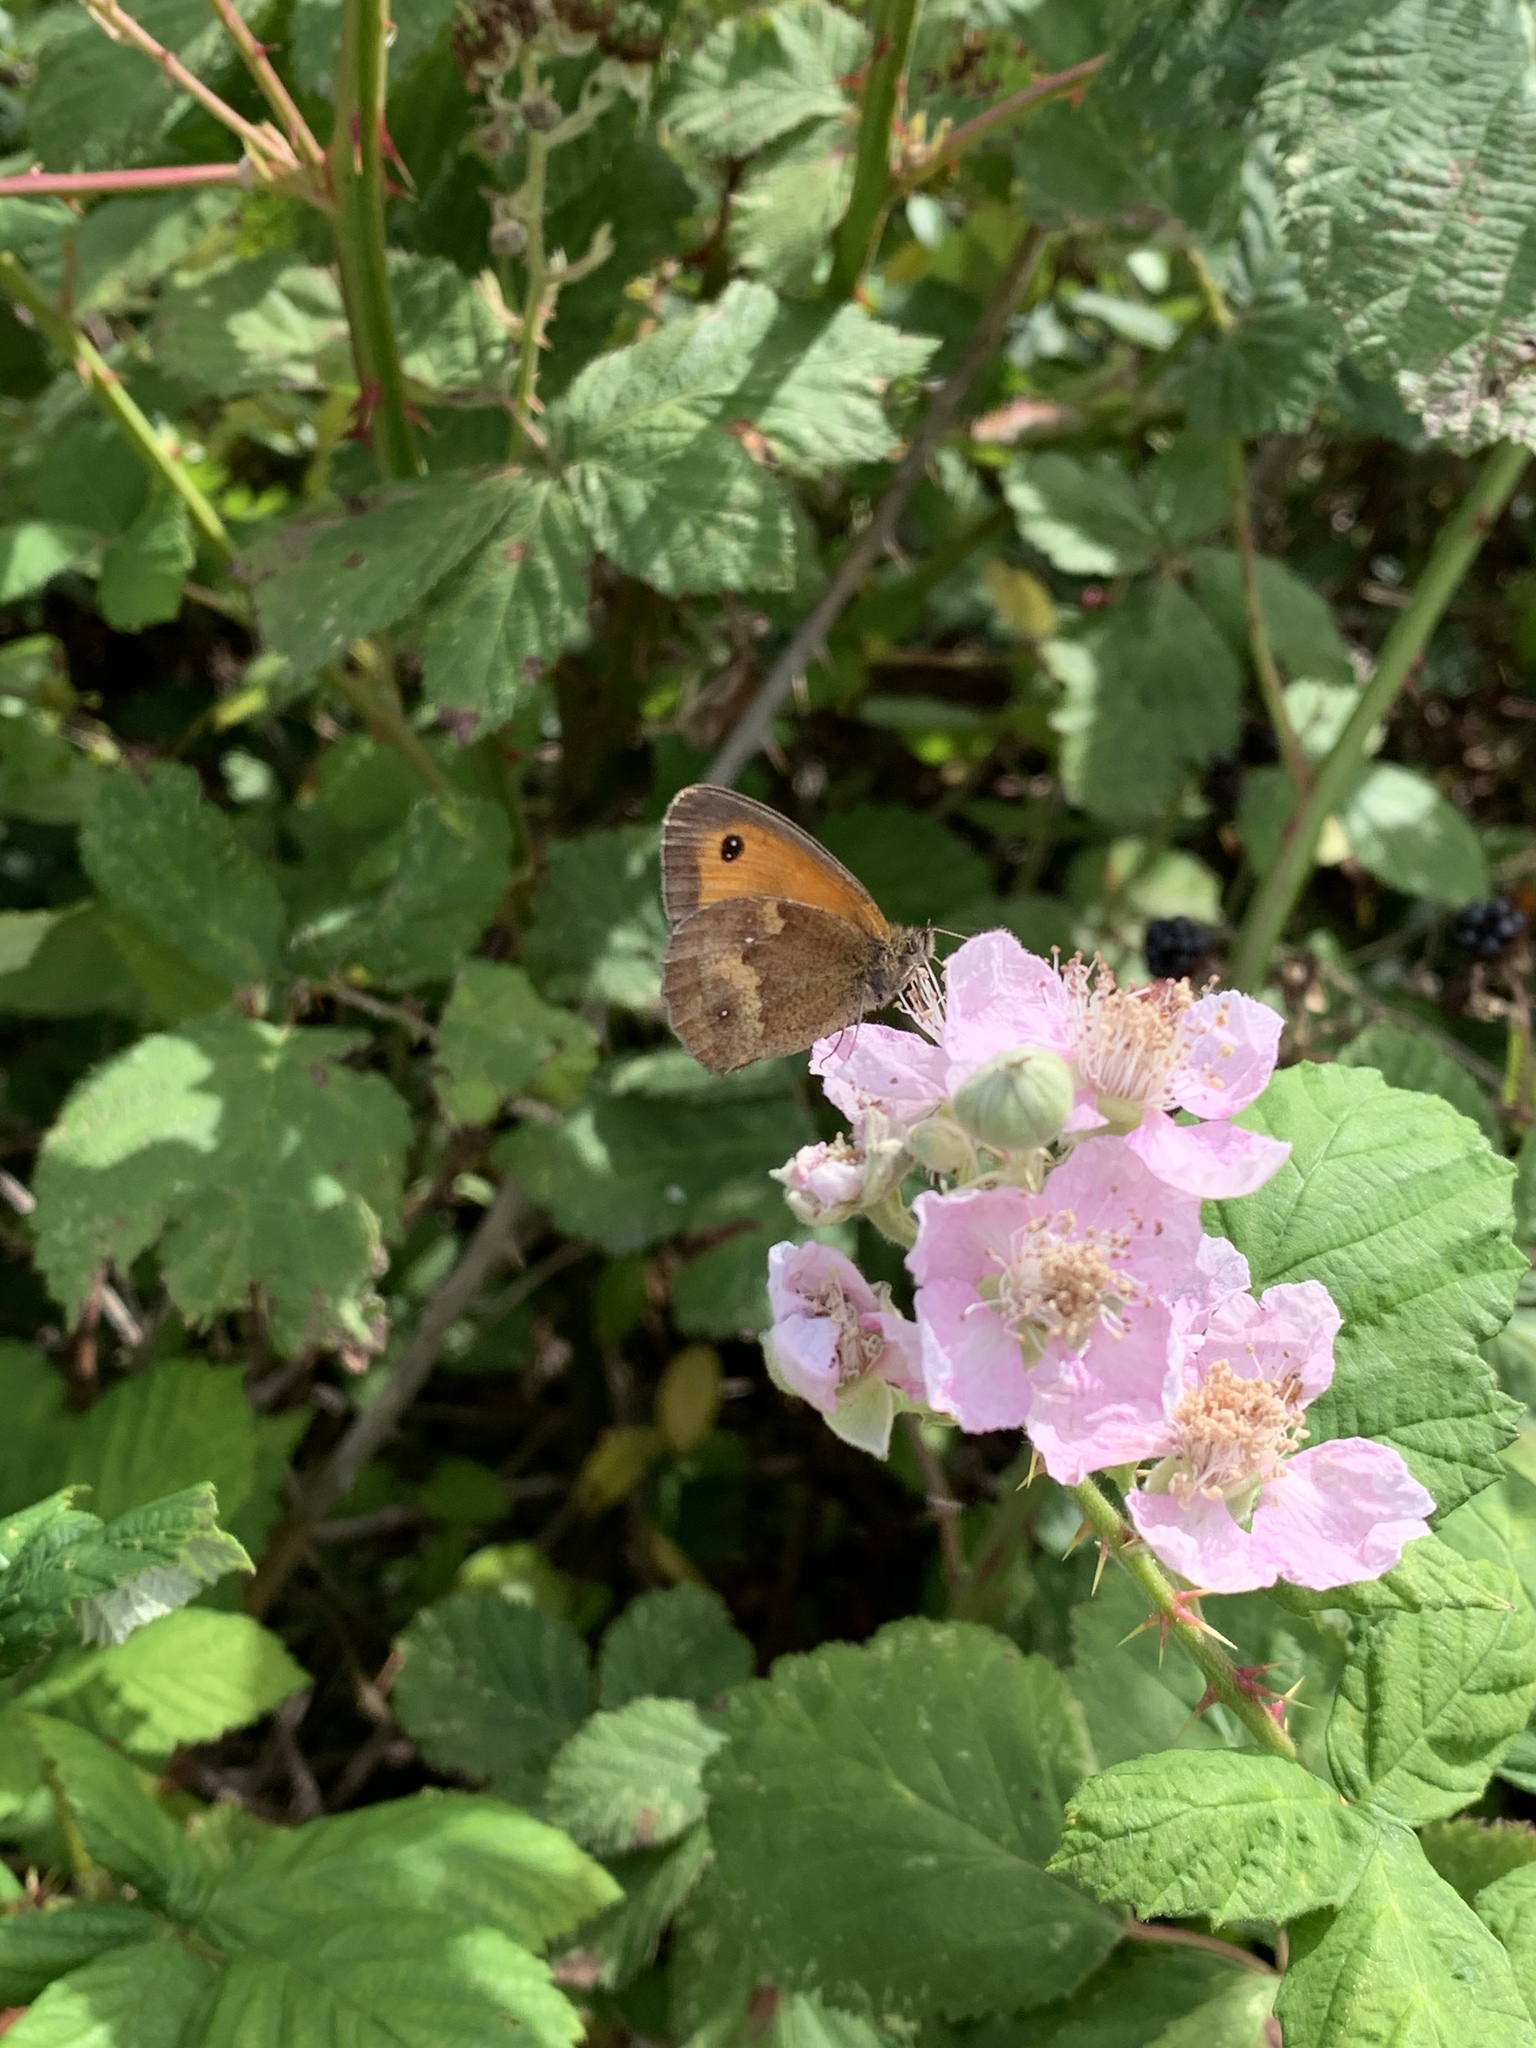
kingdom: Animalia
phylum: Arthropoda
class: Insecta
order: Lepidoptera
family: Nymphalidae
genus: Pyronia
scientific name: Pyronia tithonus
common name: Gatekeeper
